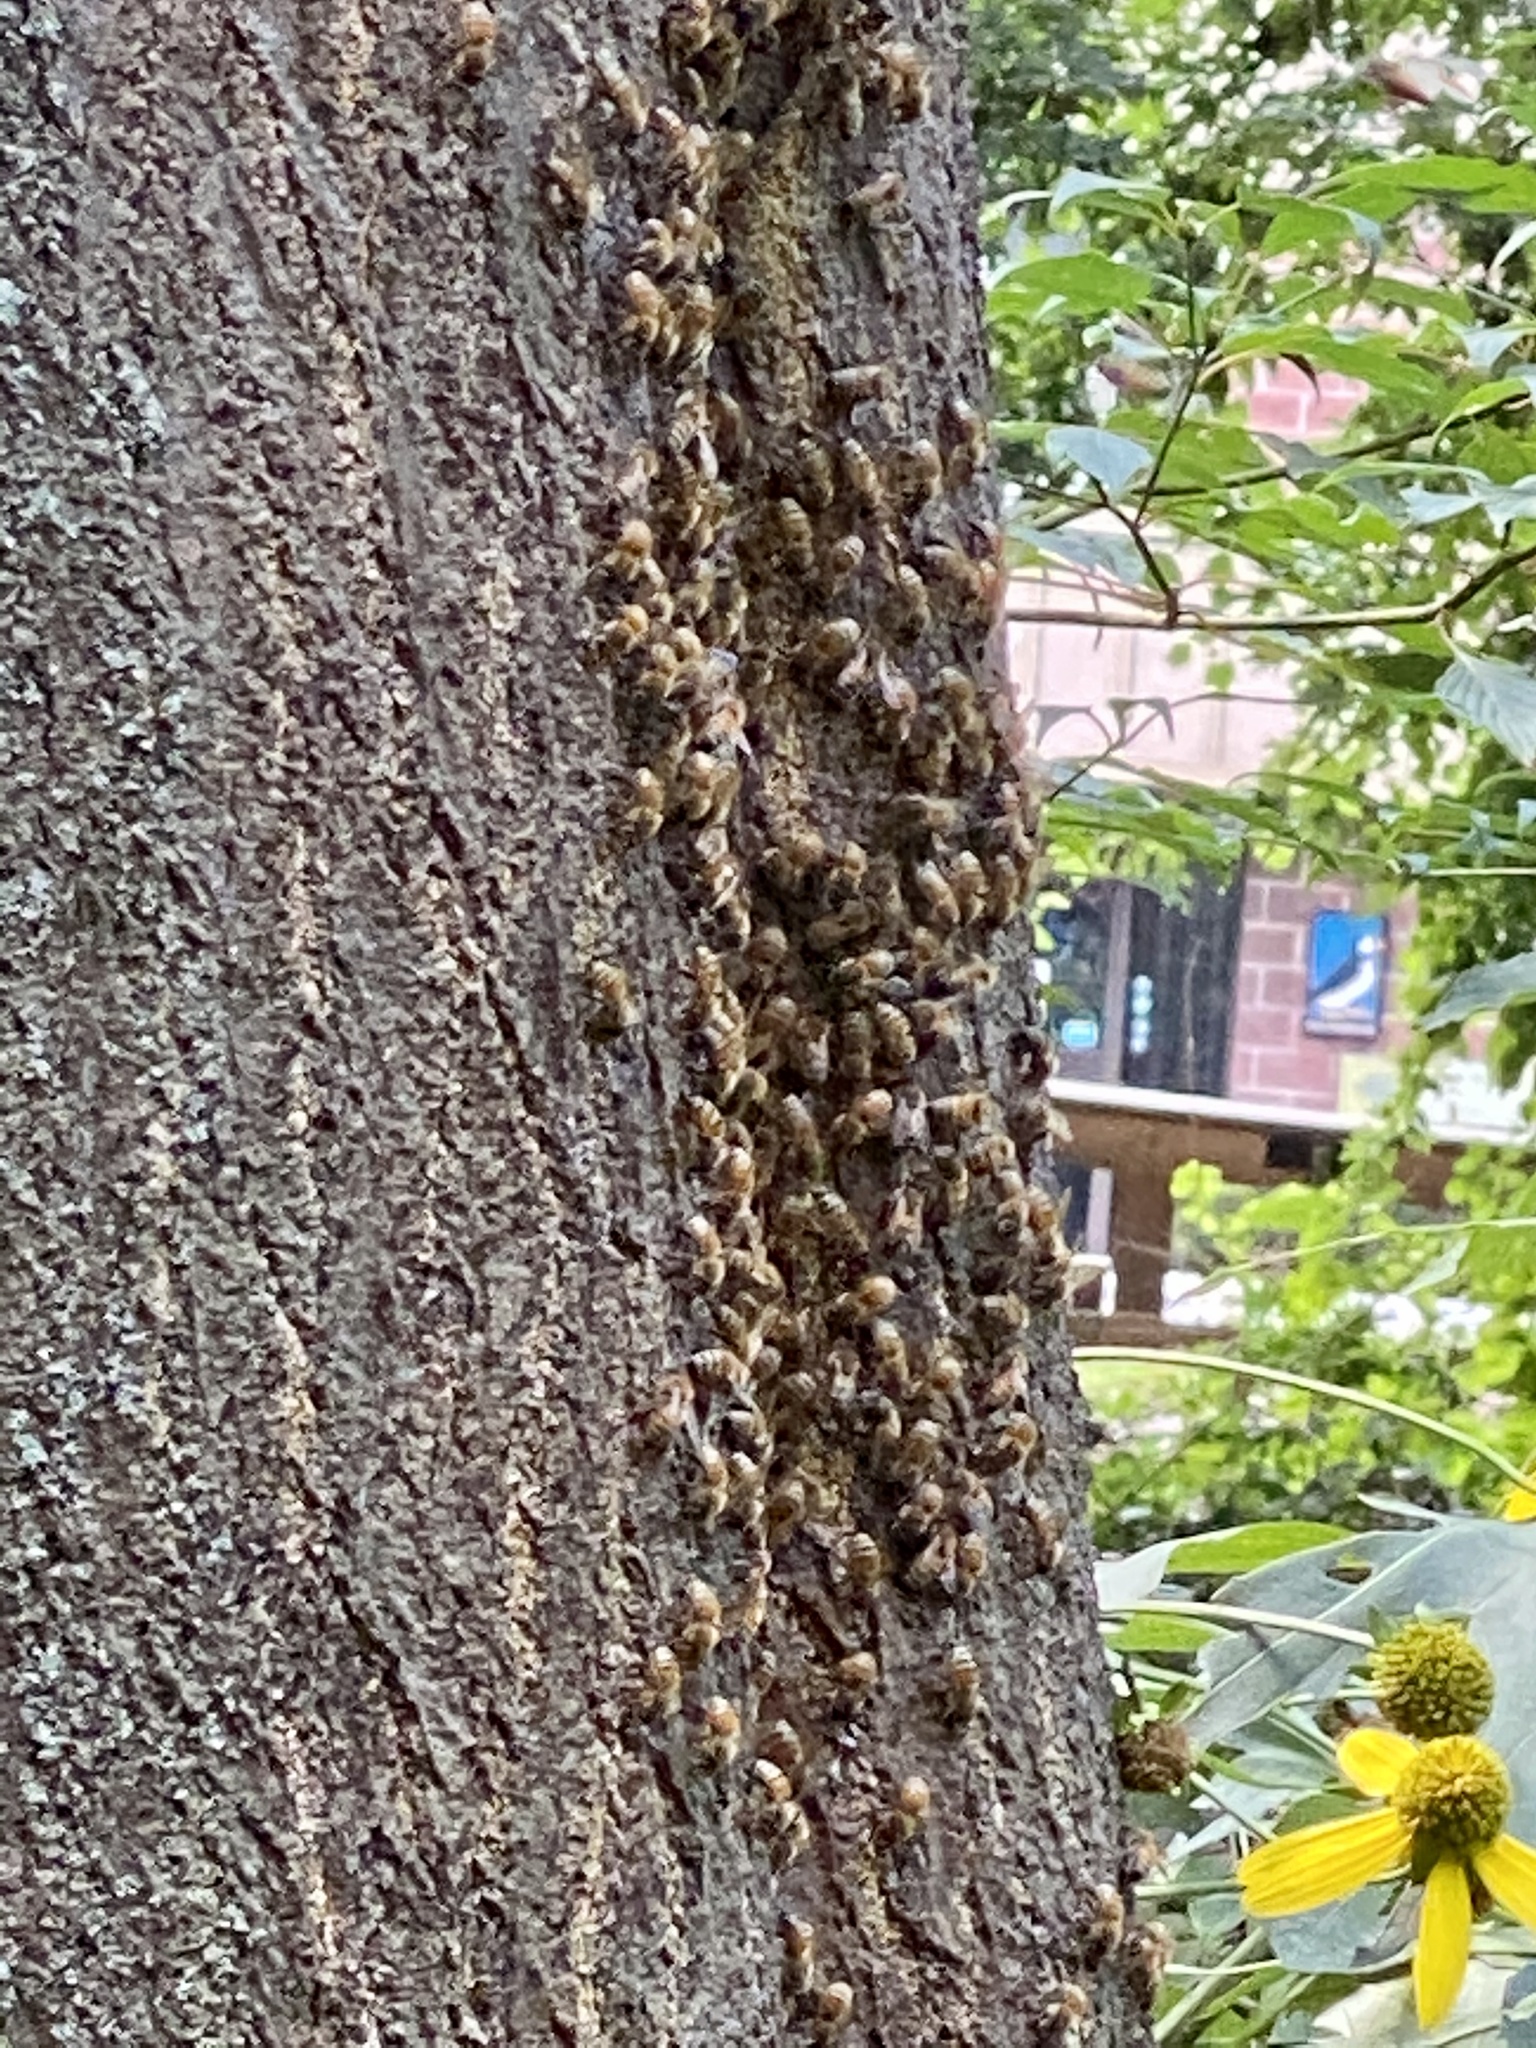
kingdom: Animalia
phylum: Arthropoda
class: Insecta
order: Hymenoptera
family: Apidae
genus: Apis
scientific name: Apis mellifera
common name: Honey bee
